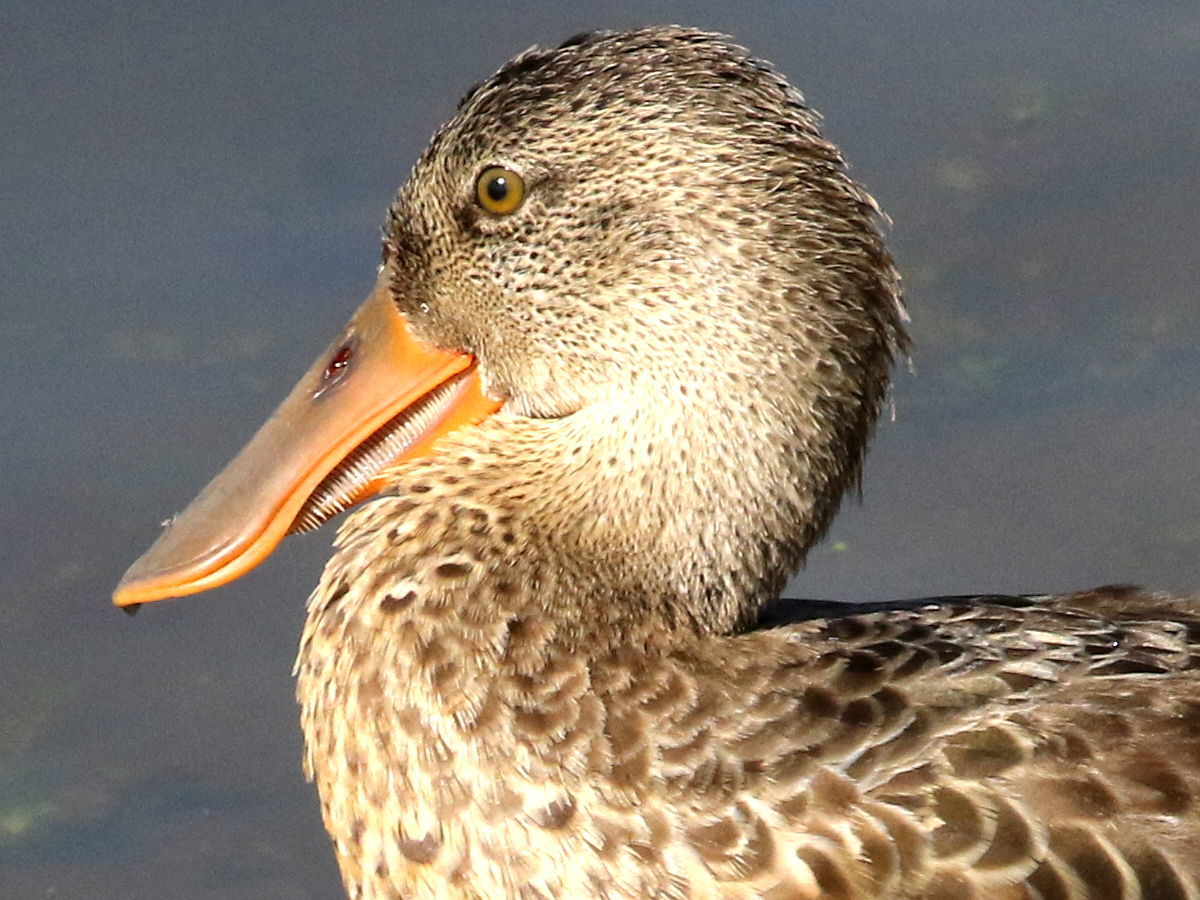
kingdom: Animalia
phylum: Chordata
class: Aves
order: Anseriformes
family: Anatidae
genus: Spatula
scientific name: Spatula clypeata
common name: Northern shoveler
